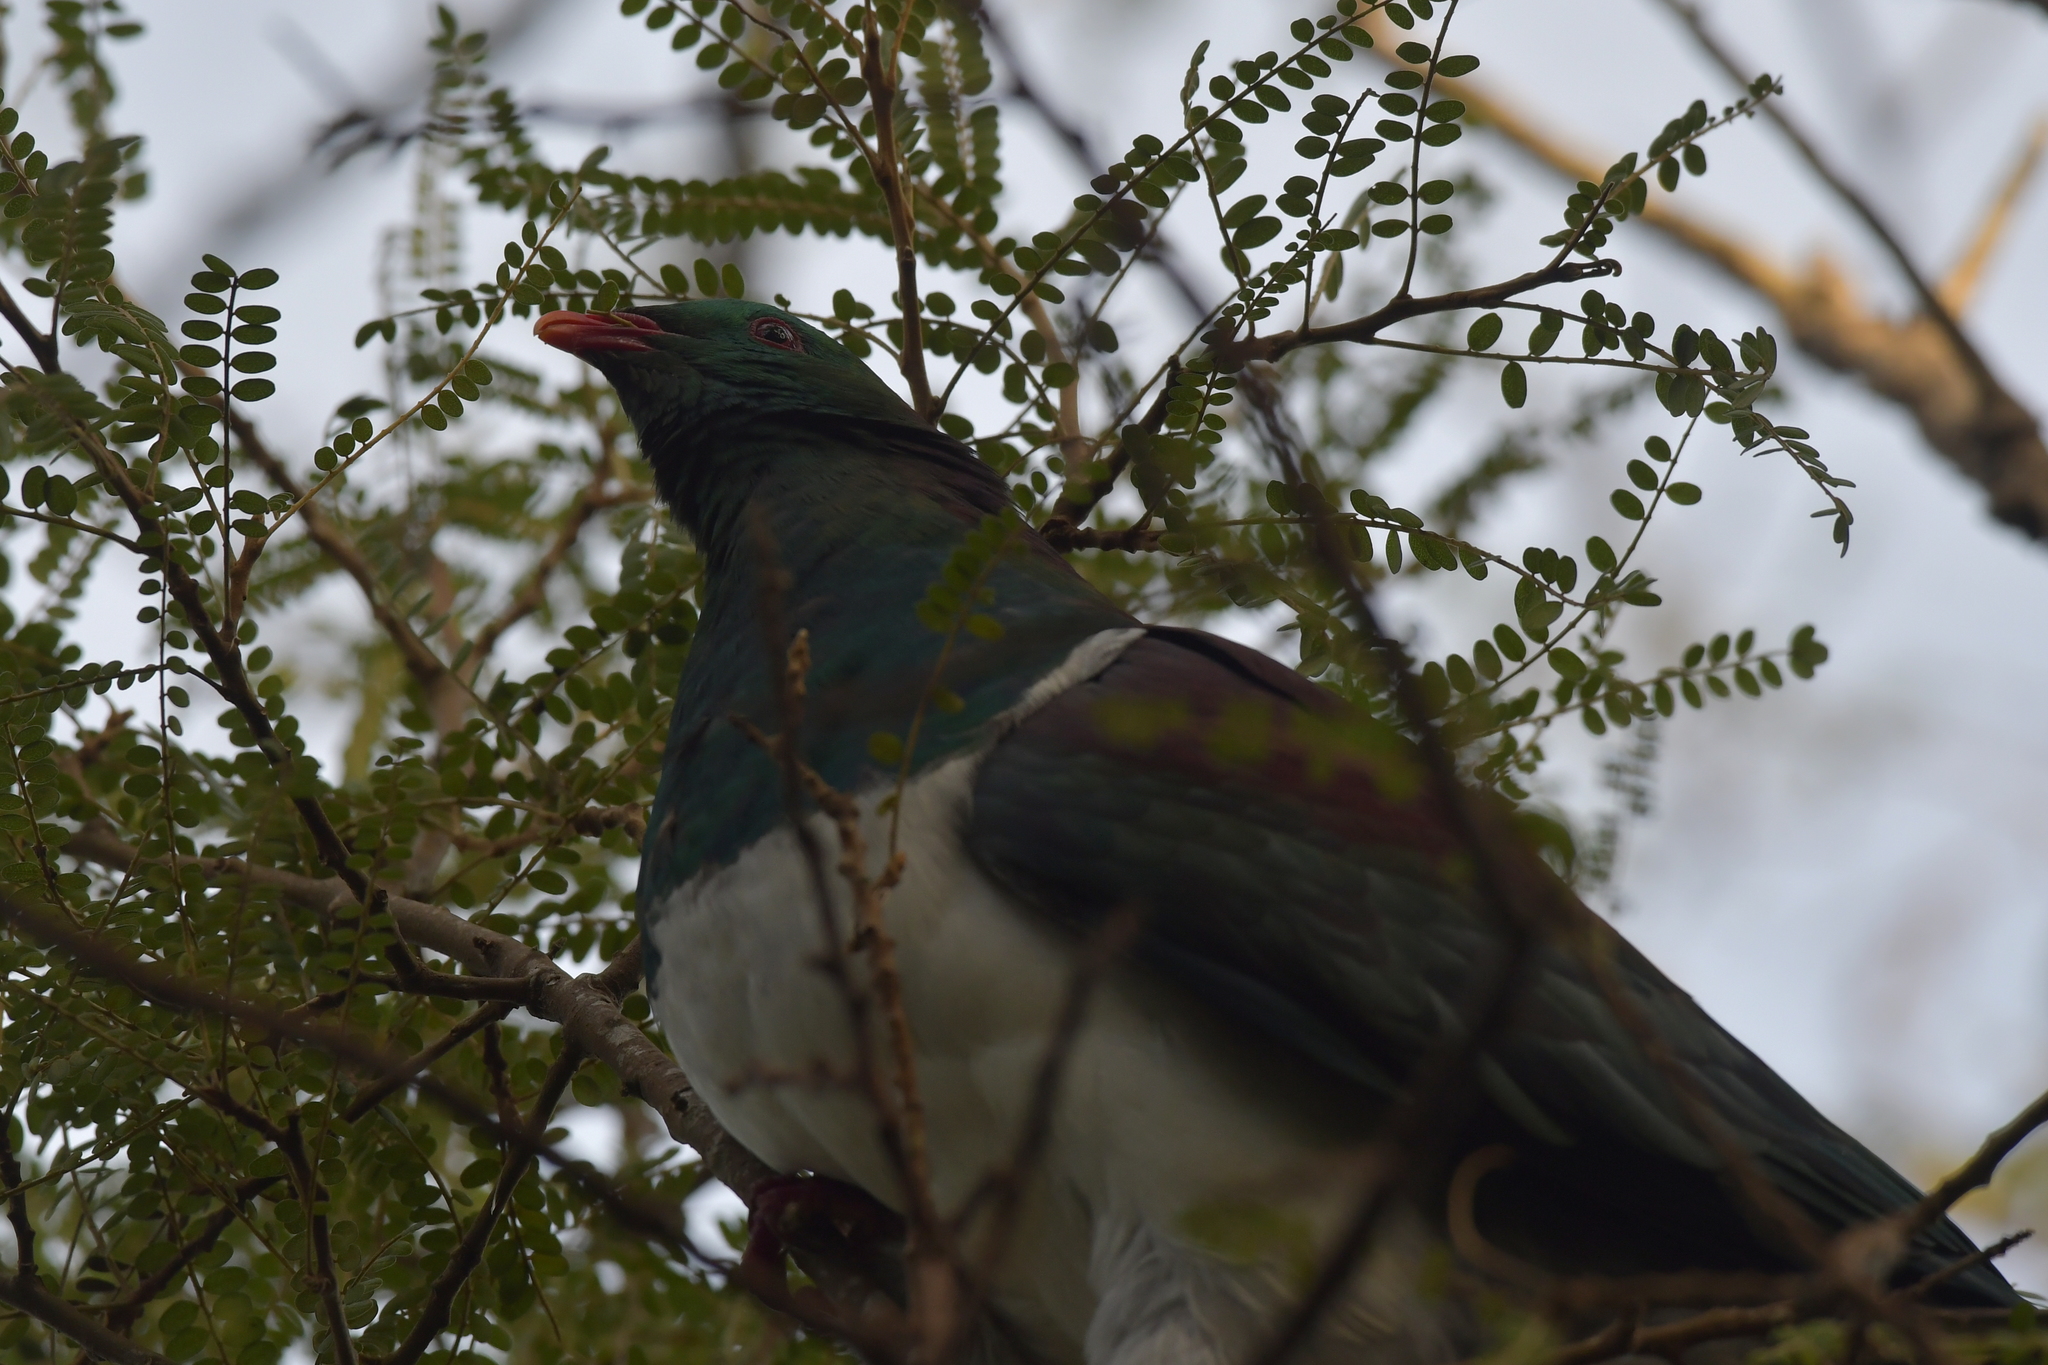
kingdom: Animalia
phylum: Chordata
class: Aves
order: Columbiformes
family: Columbidae
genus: Hemiphaga
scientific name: Hemiphaga novaeseelandiae
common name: New zealand pigeon
